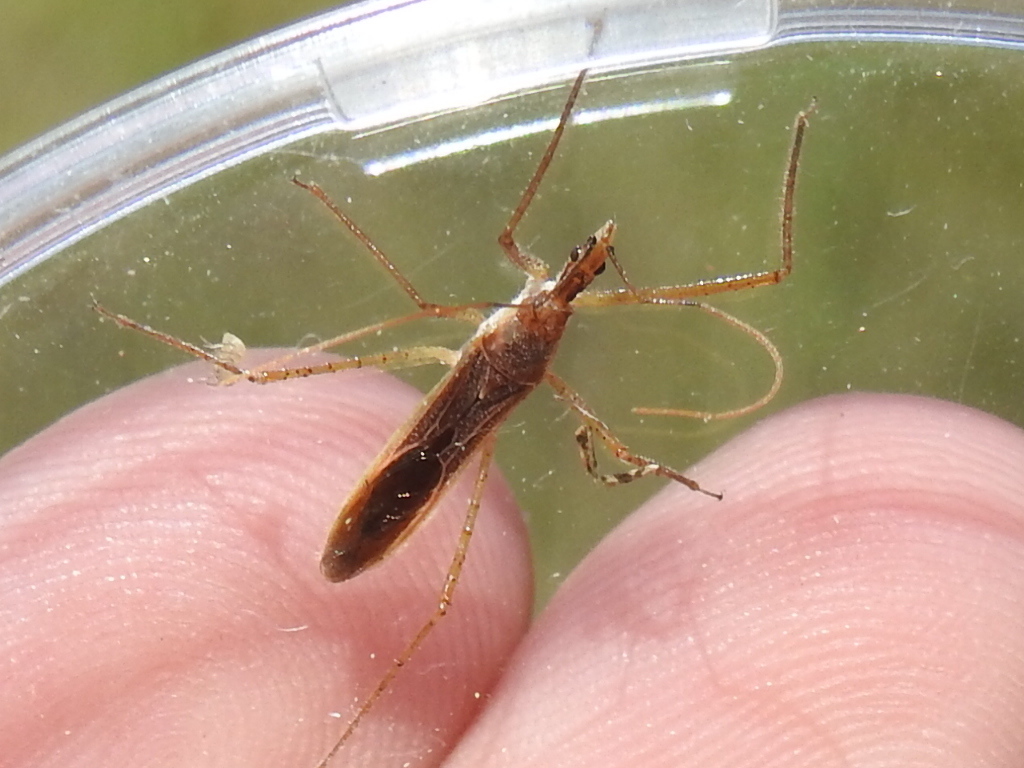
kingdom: Animalia
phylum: Arthropoda
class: Insecta
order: Hemiptera
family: Reduviidae
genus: Zelus
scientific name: Zelus cervicalis
